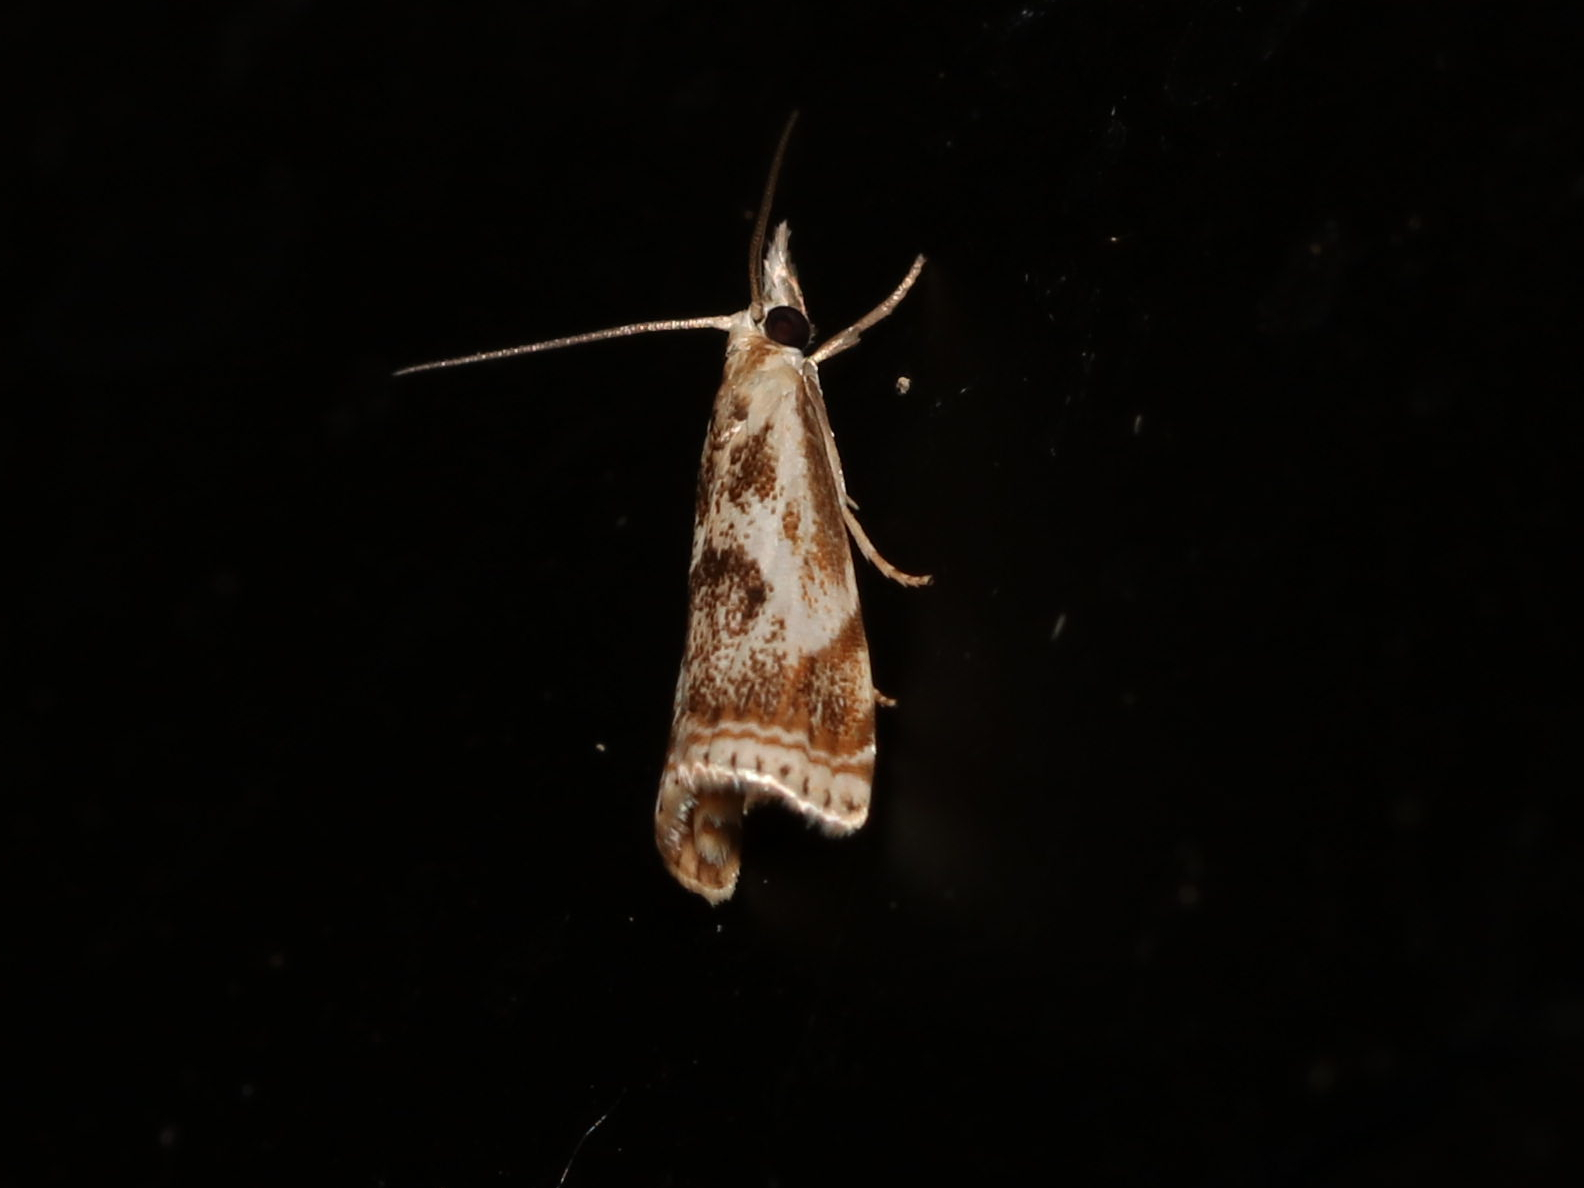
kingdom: Animalia
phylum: Arthropoda
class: Insecta
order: Lepidoptera
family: Crambidae
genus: Microcrambus
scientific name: Microcrambus elegans
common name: Elegant grass-veneer
